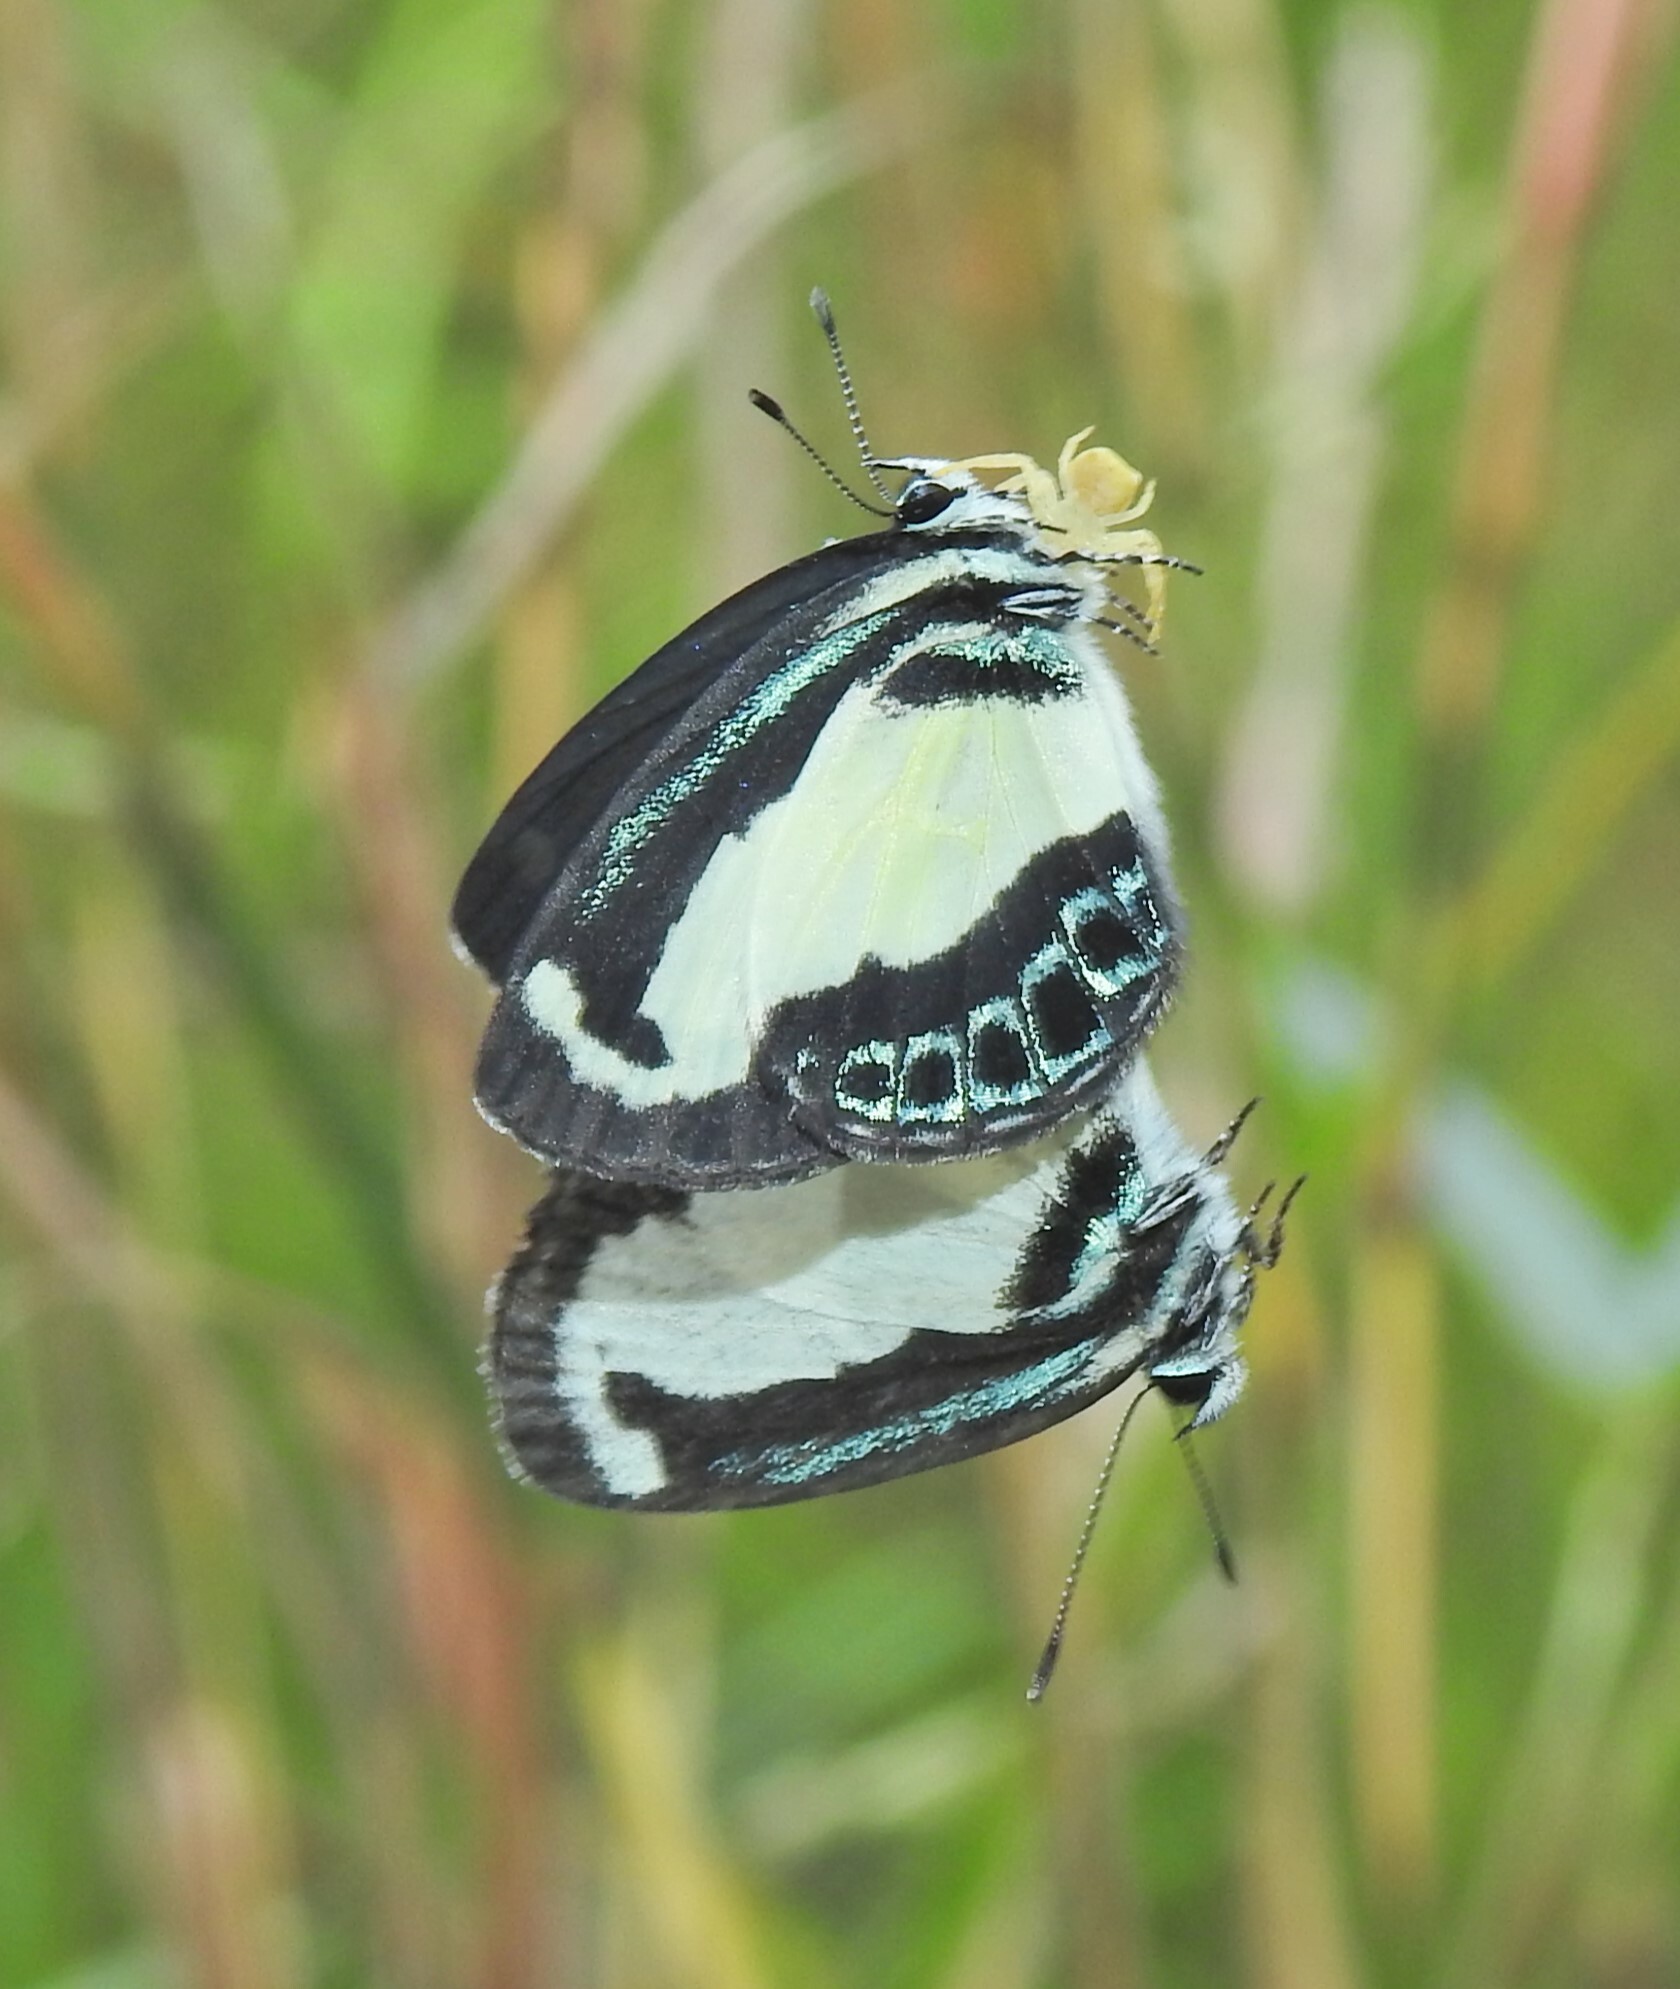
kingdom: Animalia
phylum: Arthropoda
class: Insecta
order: Lepidoptera
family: Lycaenidae
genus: Psychonotis
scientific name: Psychonotis caelius
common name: Small green banded blue
